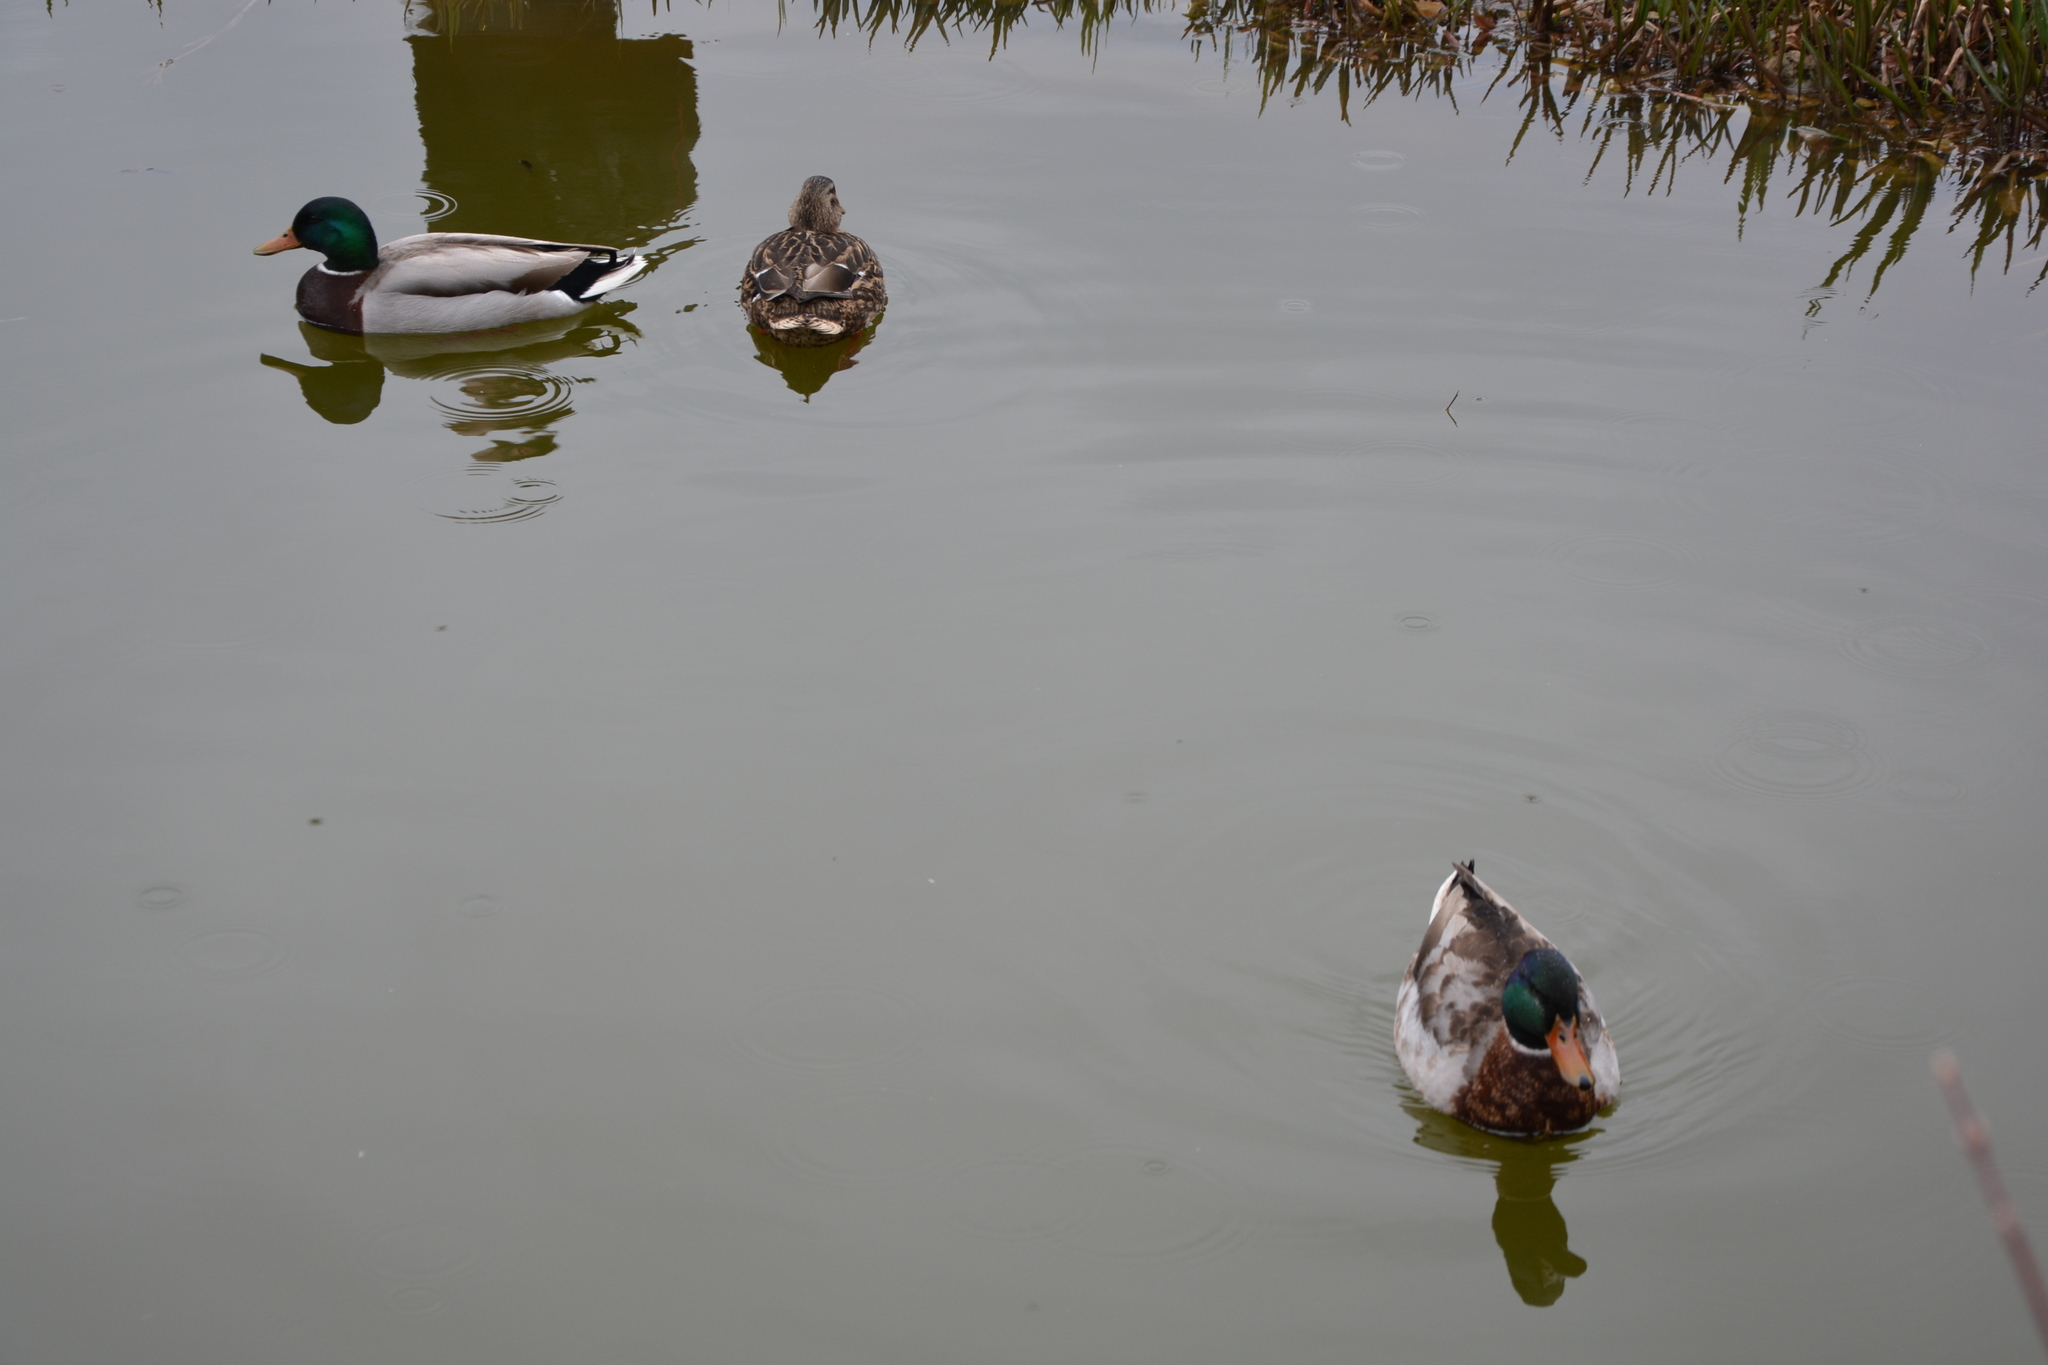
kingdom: Animalia
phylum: Chordata
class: Aves
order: Anseriformes
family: Anatidae
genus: Anas
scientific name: Anas platyrhynchos
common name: Mallard
